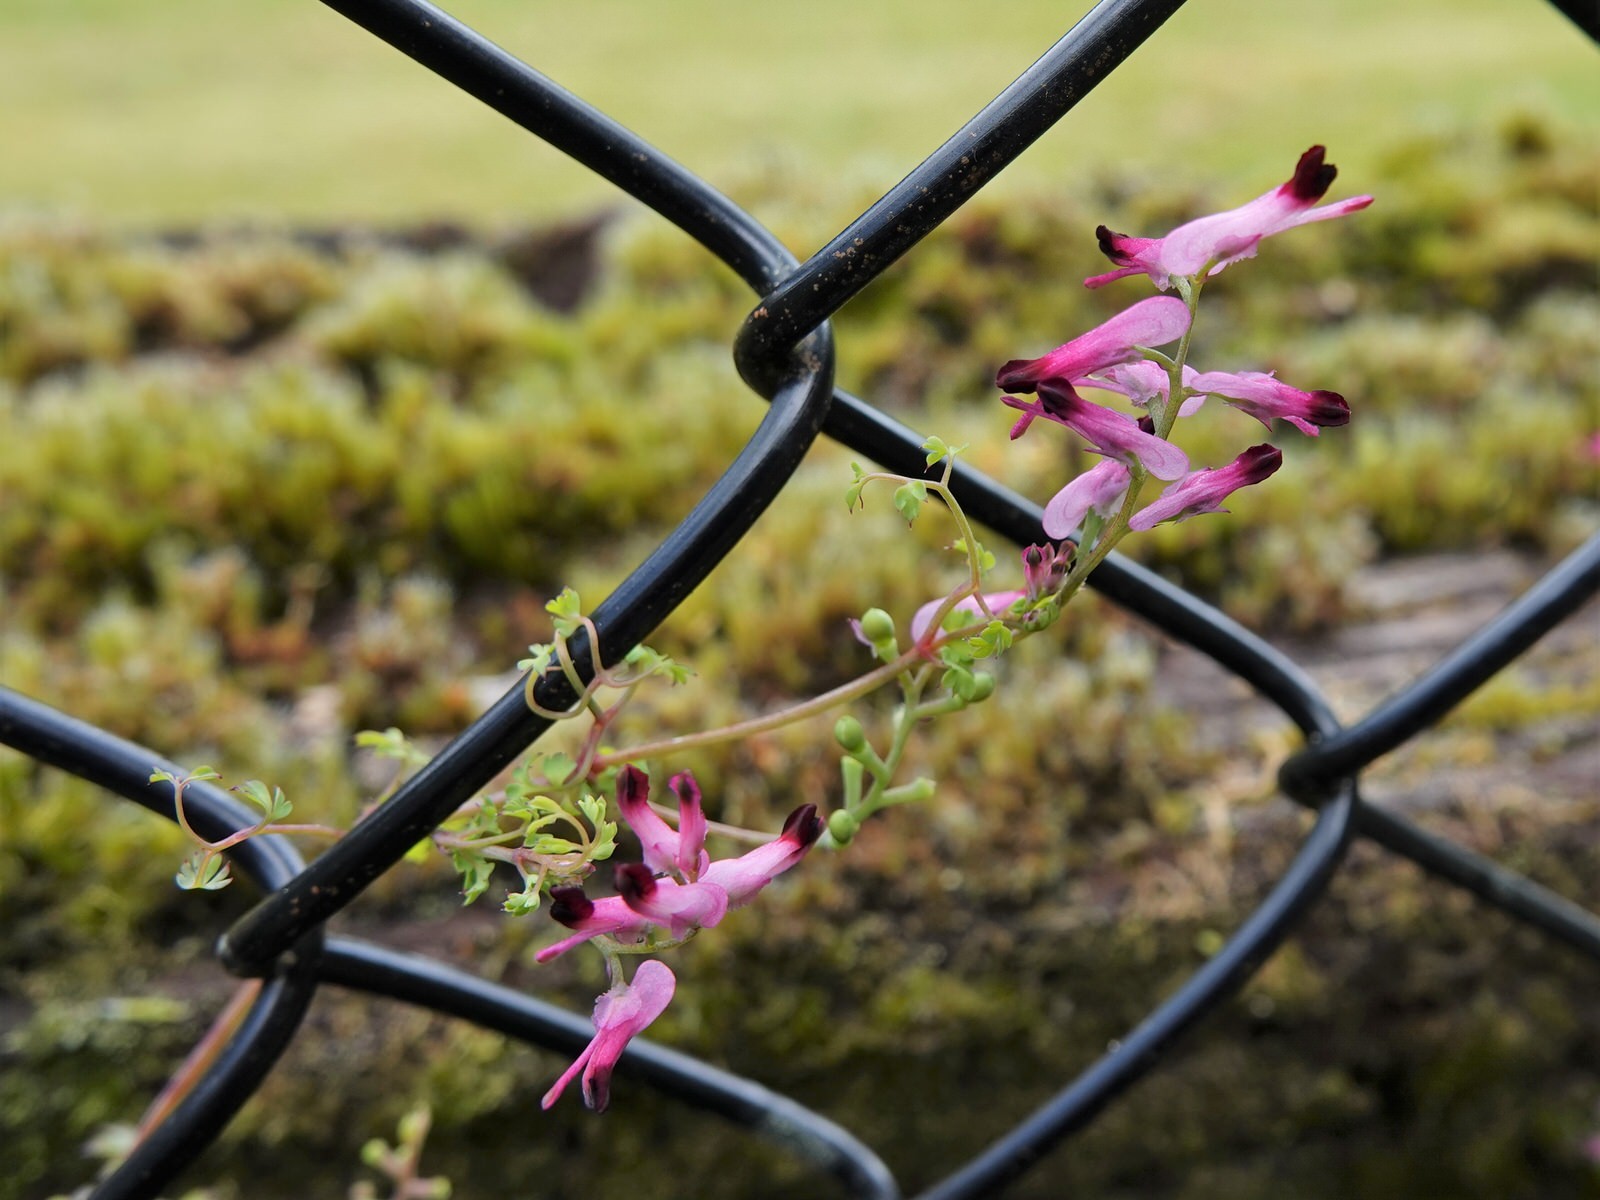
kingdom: Plantae
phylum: Tracheophyta
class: Magnoliopsida
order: Ranunculales
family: Papaveraceae
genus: Fumaria
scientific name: Fumaria muralis
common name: Common ramping-fumitory
